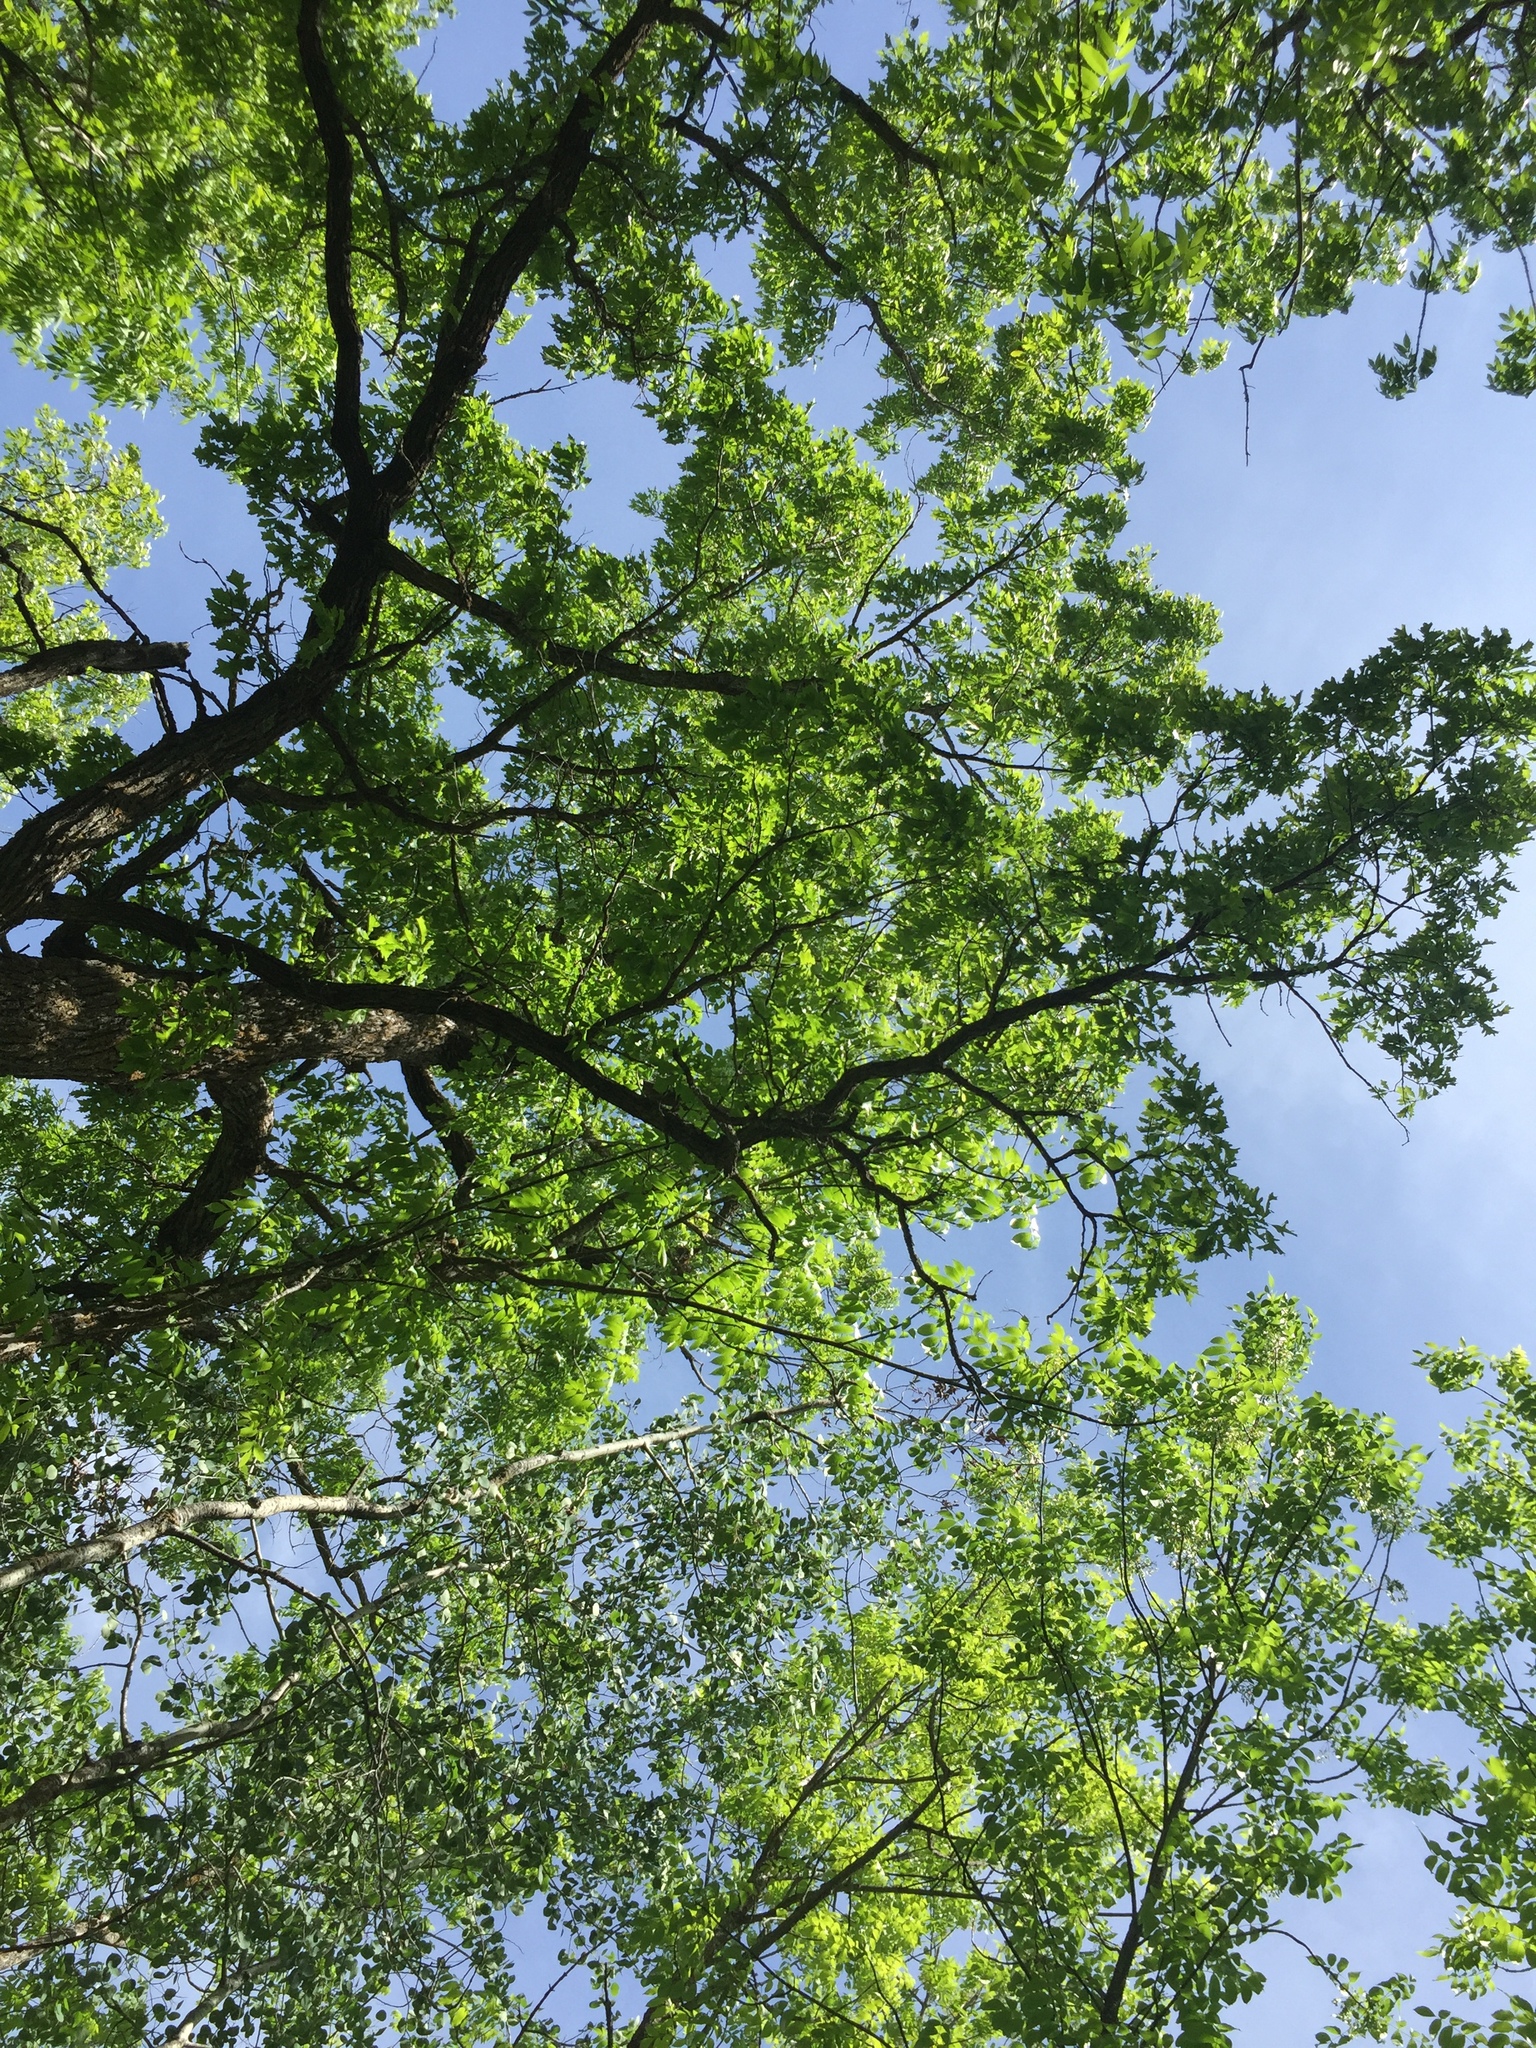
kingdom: Plantae
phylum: Tracheophyta
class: Magnoliopsida
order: Fagales
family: Fagaceae
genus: Quercus
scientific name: Quercus macrocarpa
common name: Bur oak
